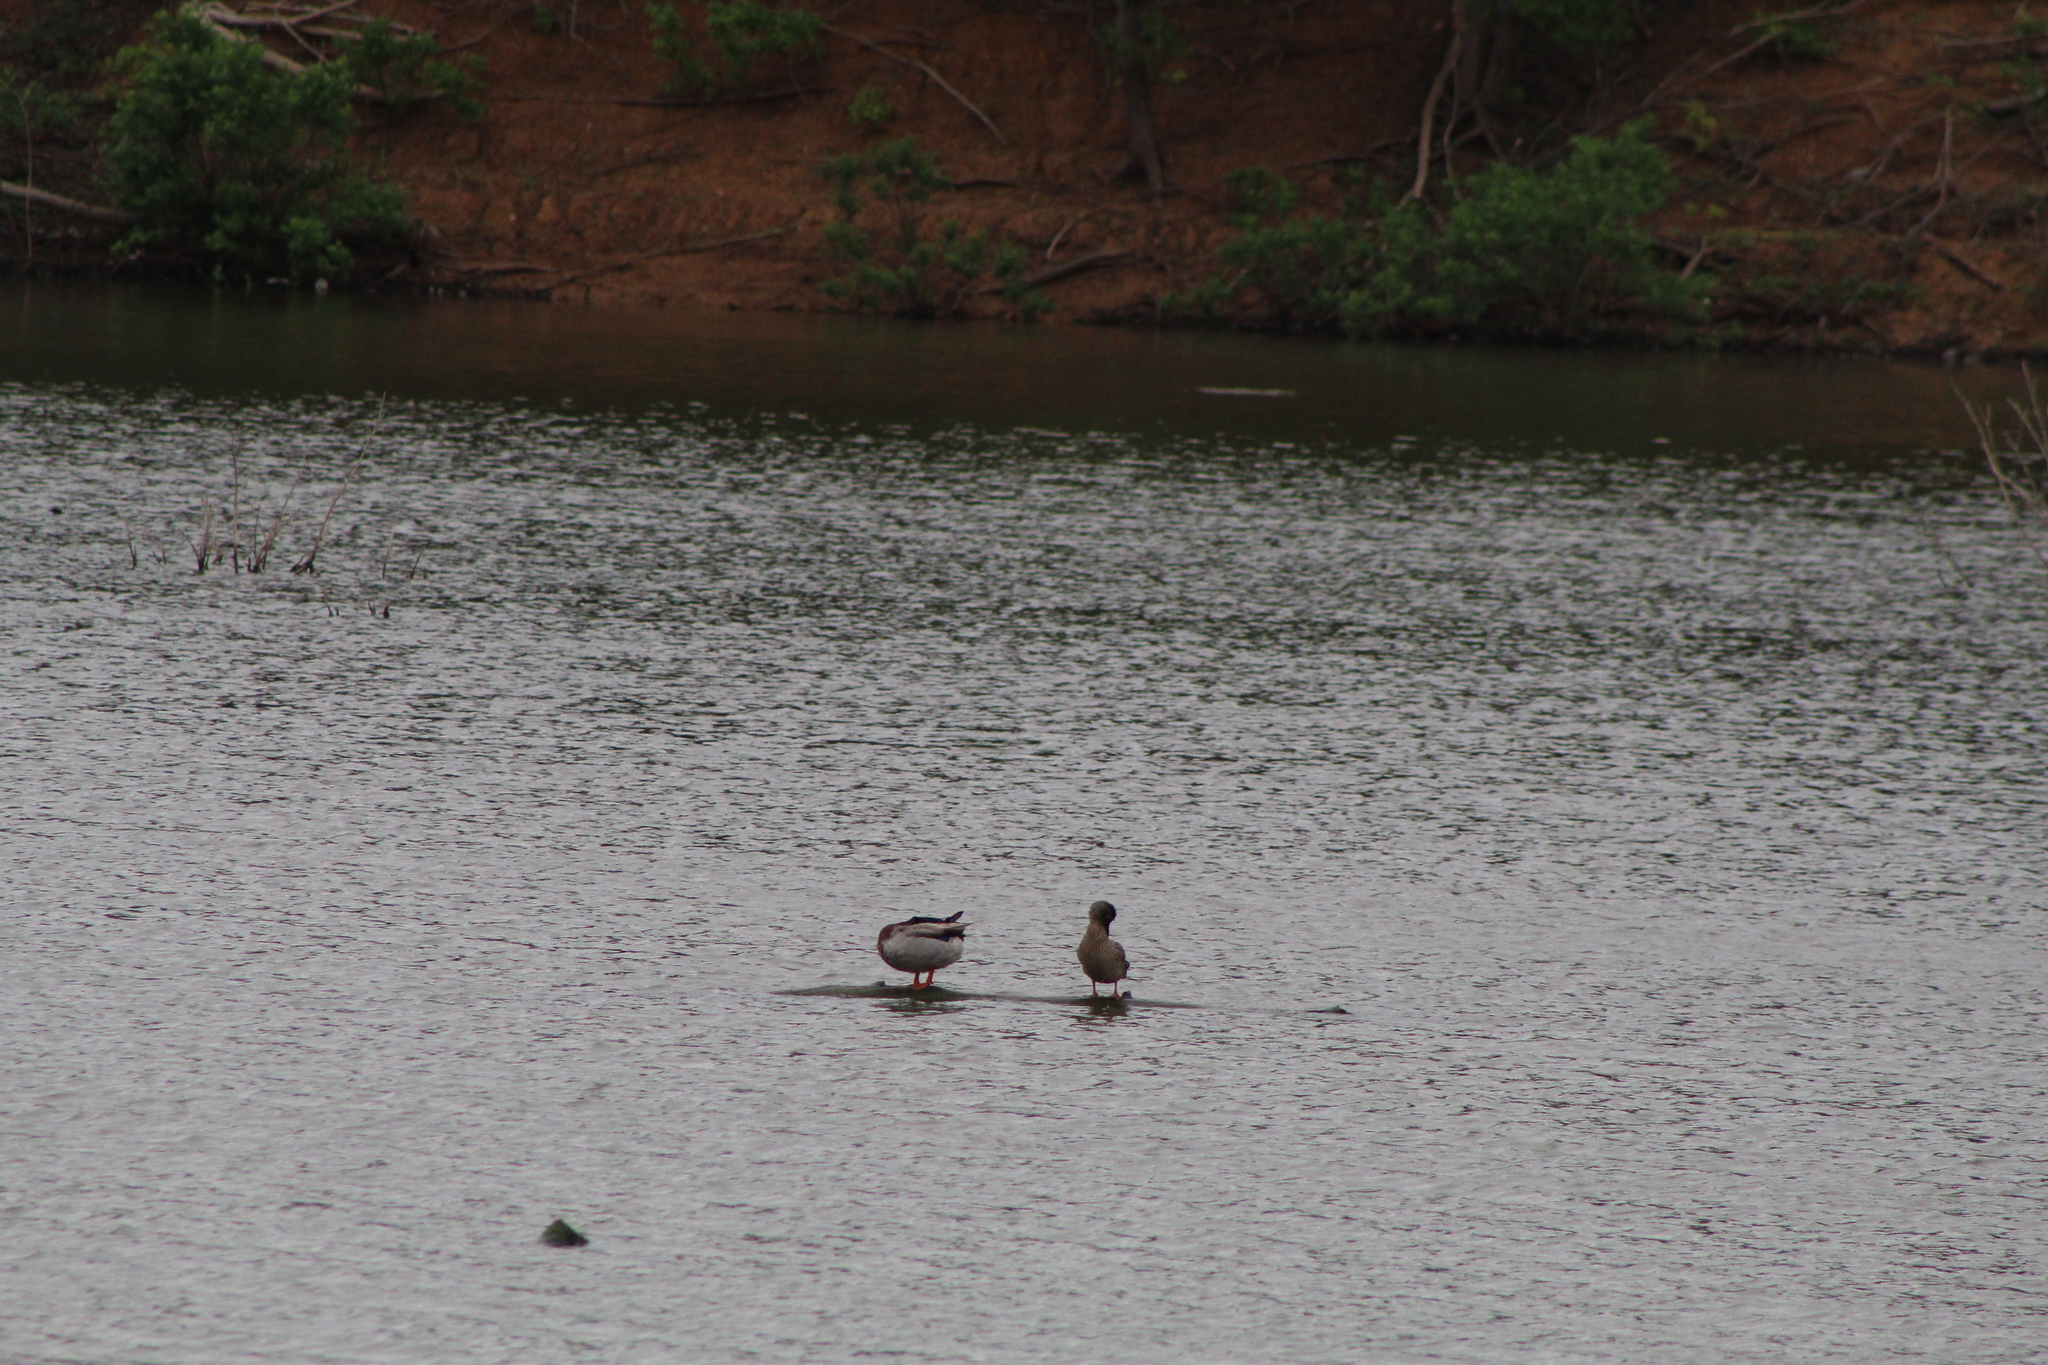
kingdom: Animalia
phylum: Chordata
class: Aves
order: Anseriformes
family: Anatidae
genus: Anas
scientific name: Anas platyrhynchos
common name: Mallard
